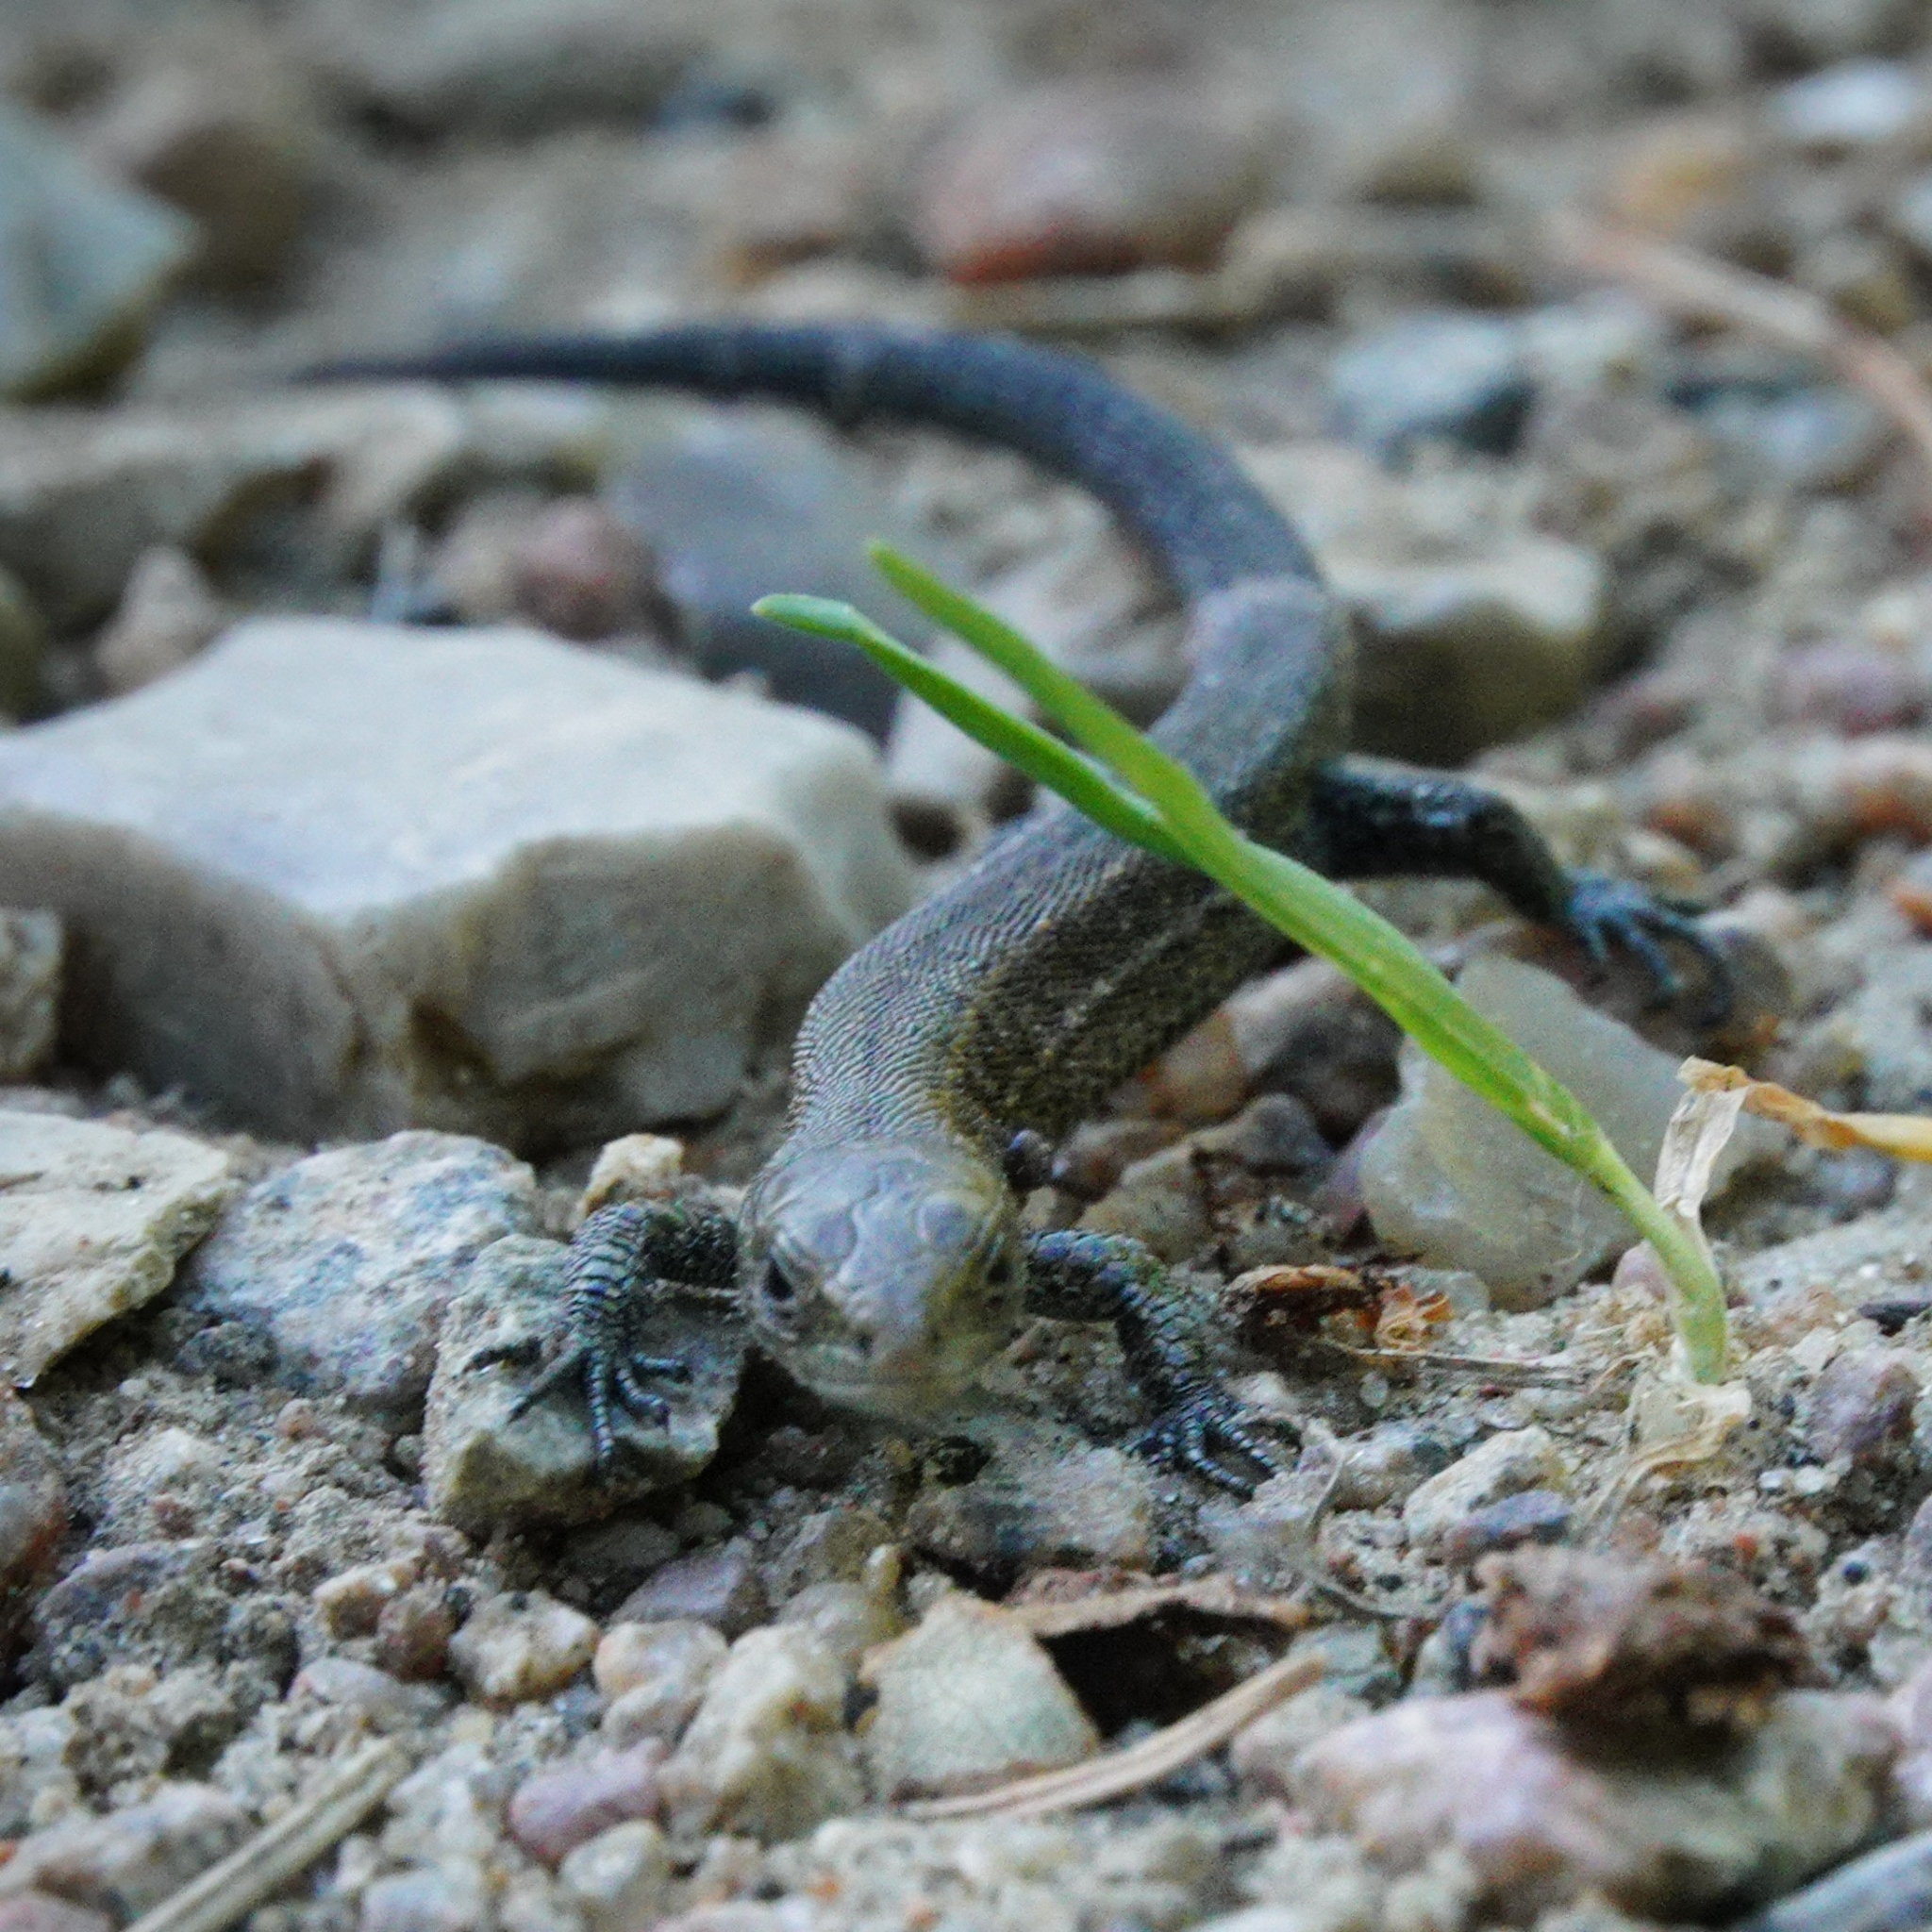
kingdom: Animalia
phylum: Chordata
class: Squamata
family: Lacertidae
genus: Zootoca
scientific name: Zootoca vivipara
